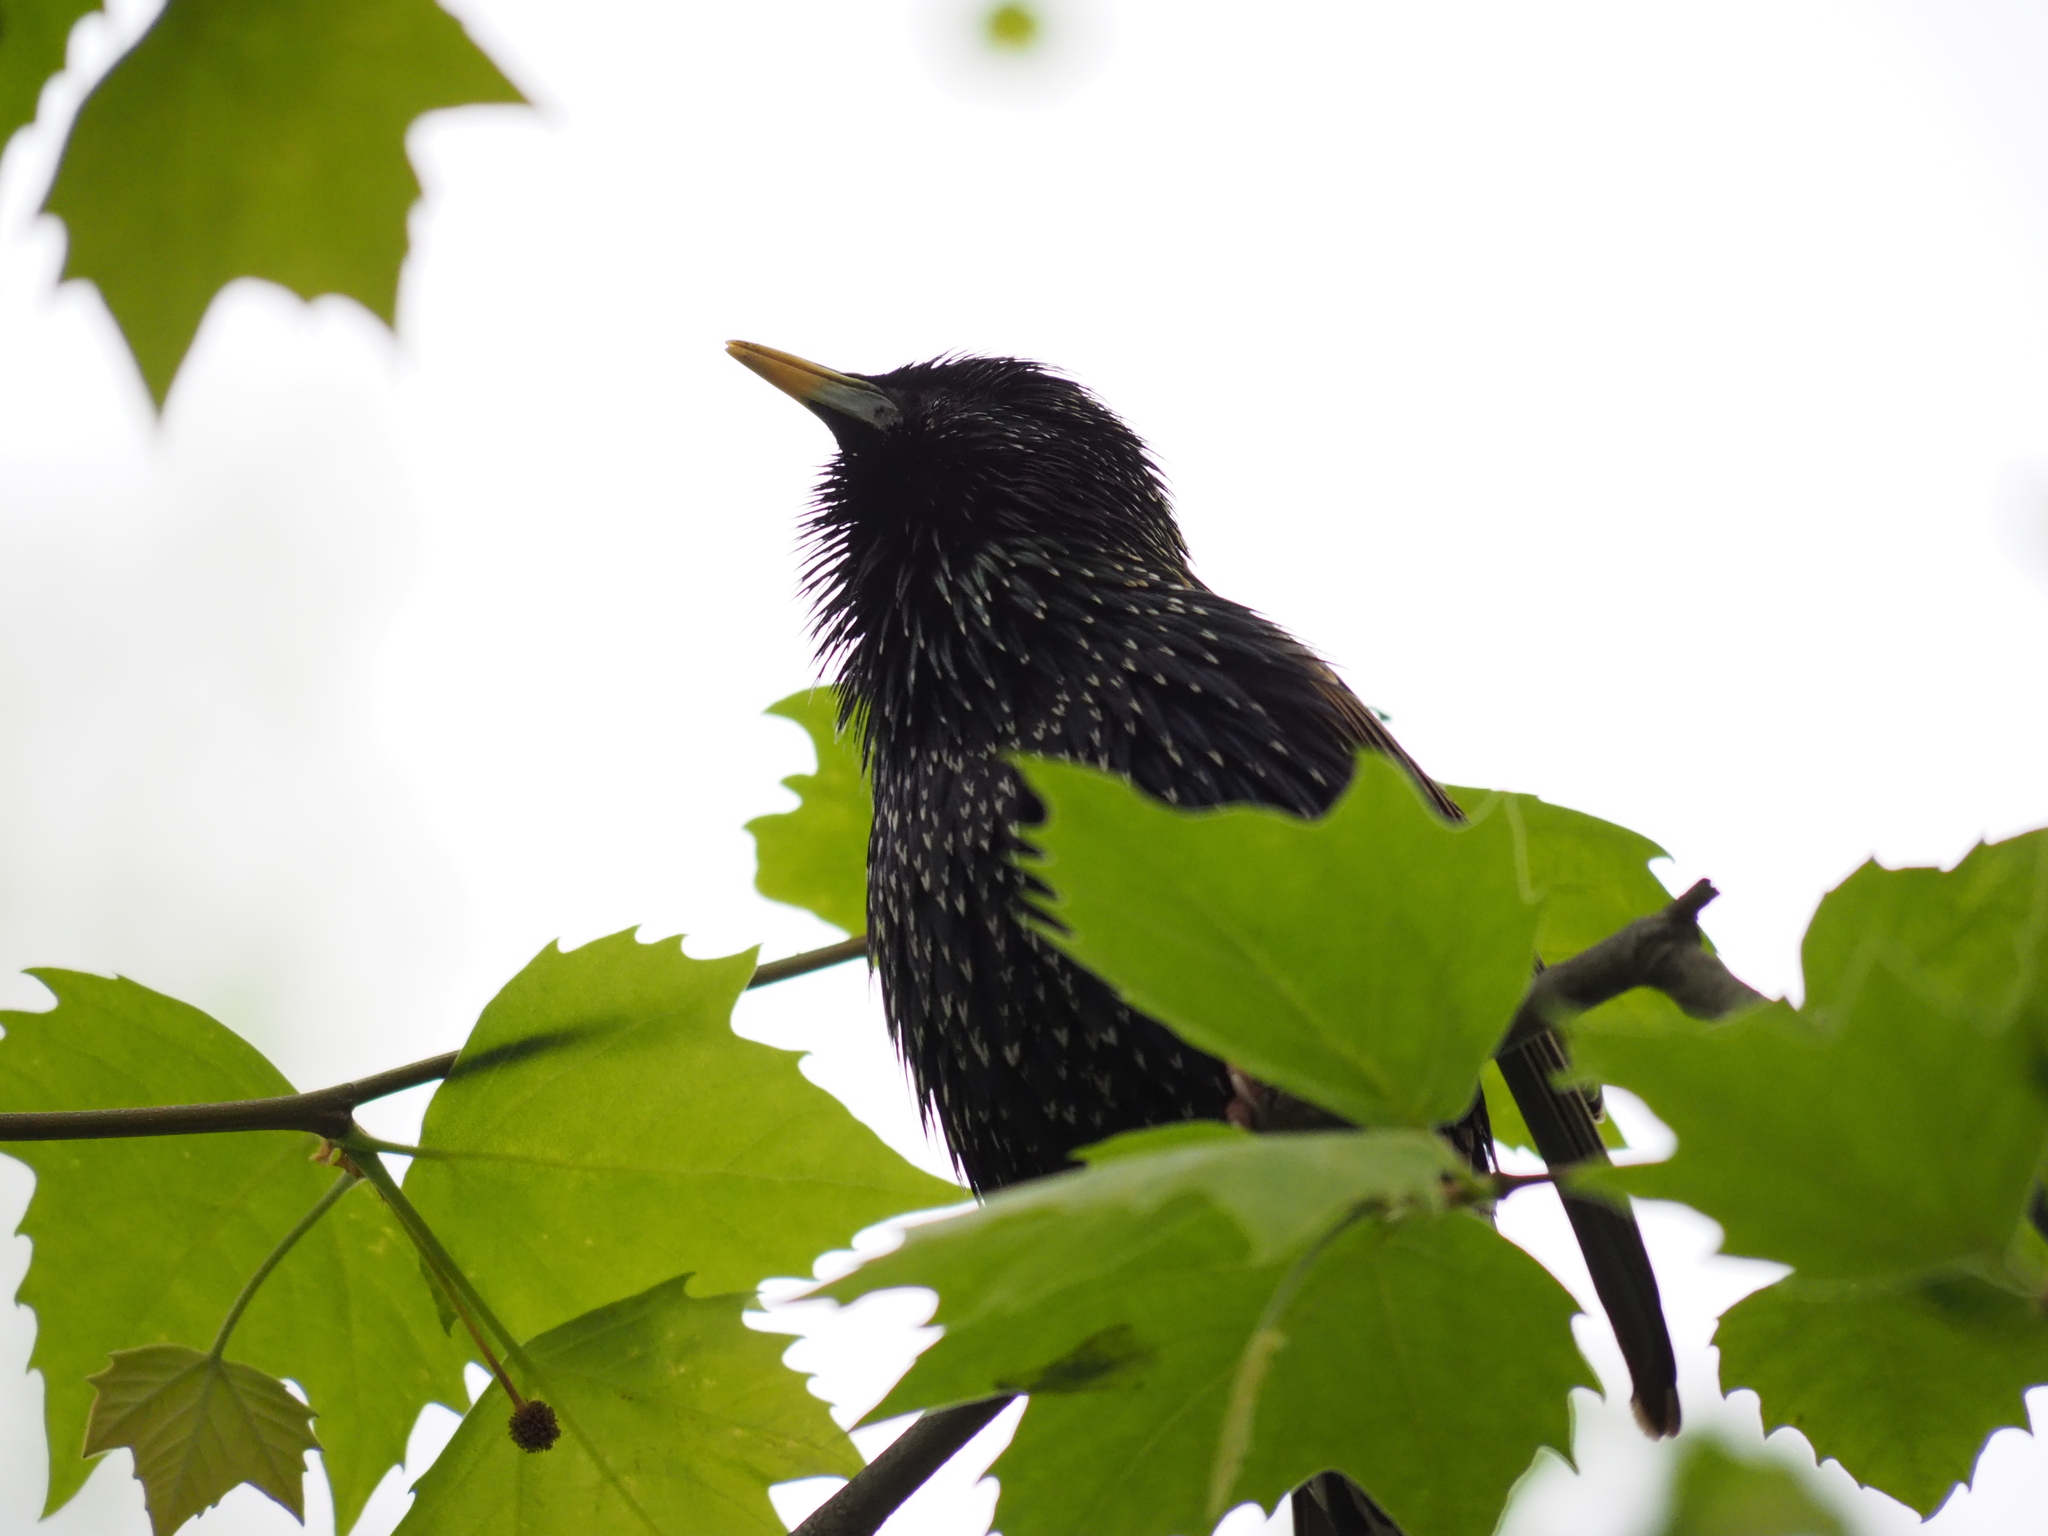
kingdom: Animalia
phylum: Chordata
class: Aves
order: Passeriformes
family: Sturnidae
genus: Sturnus
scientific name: Sturnus vulgaris
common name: Common starling
